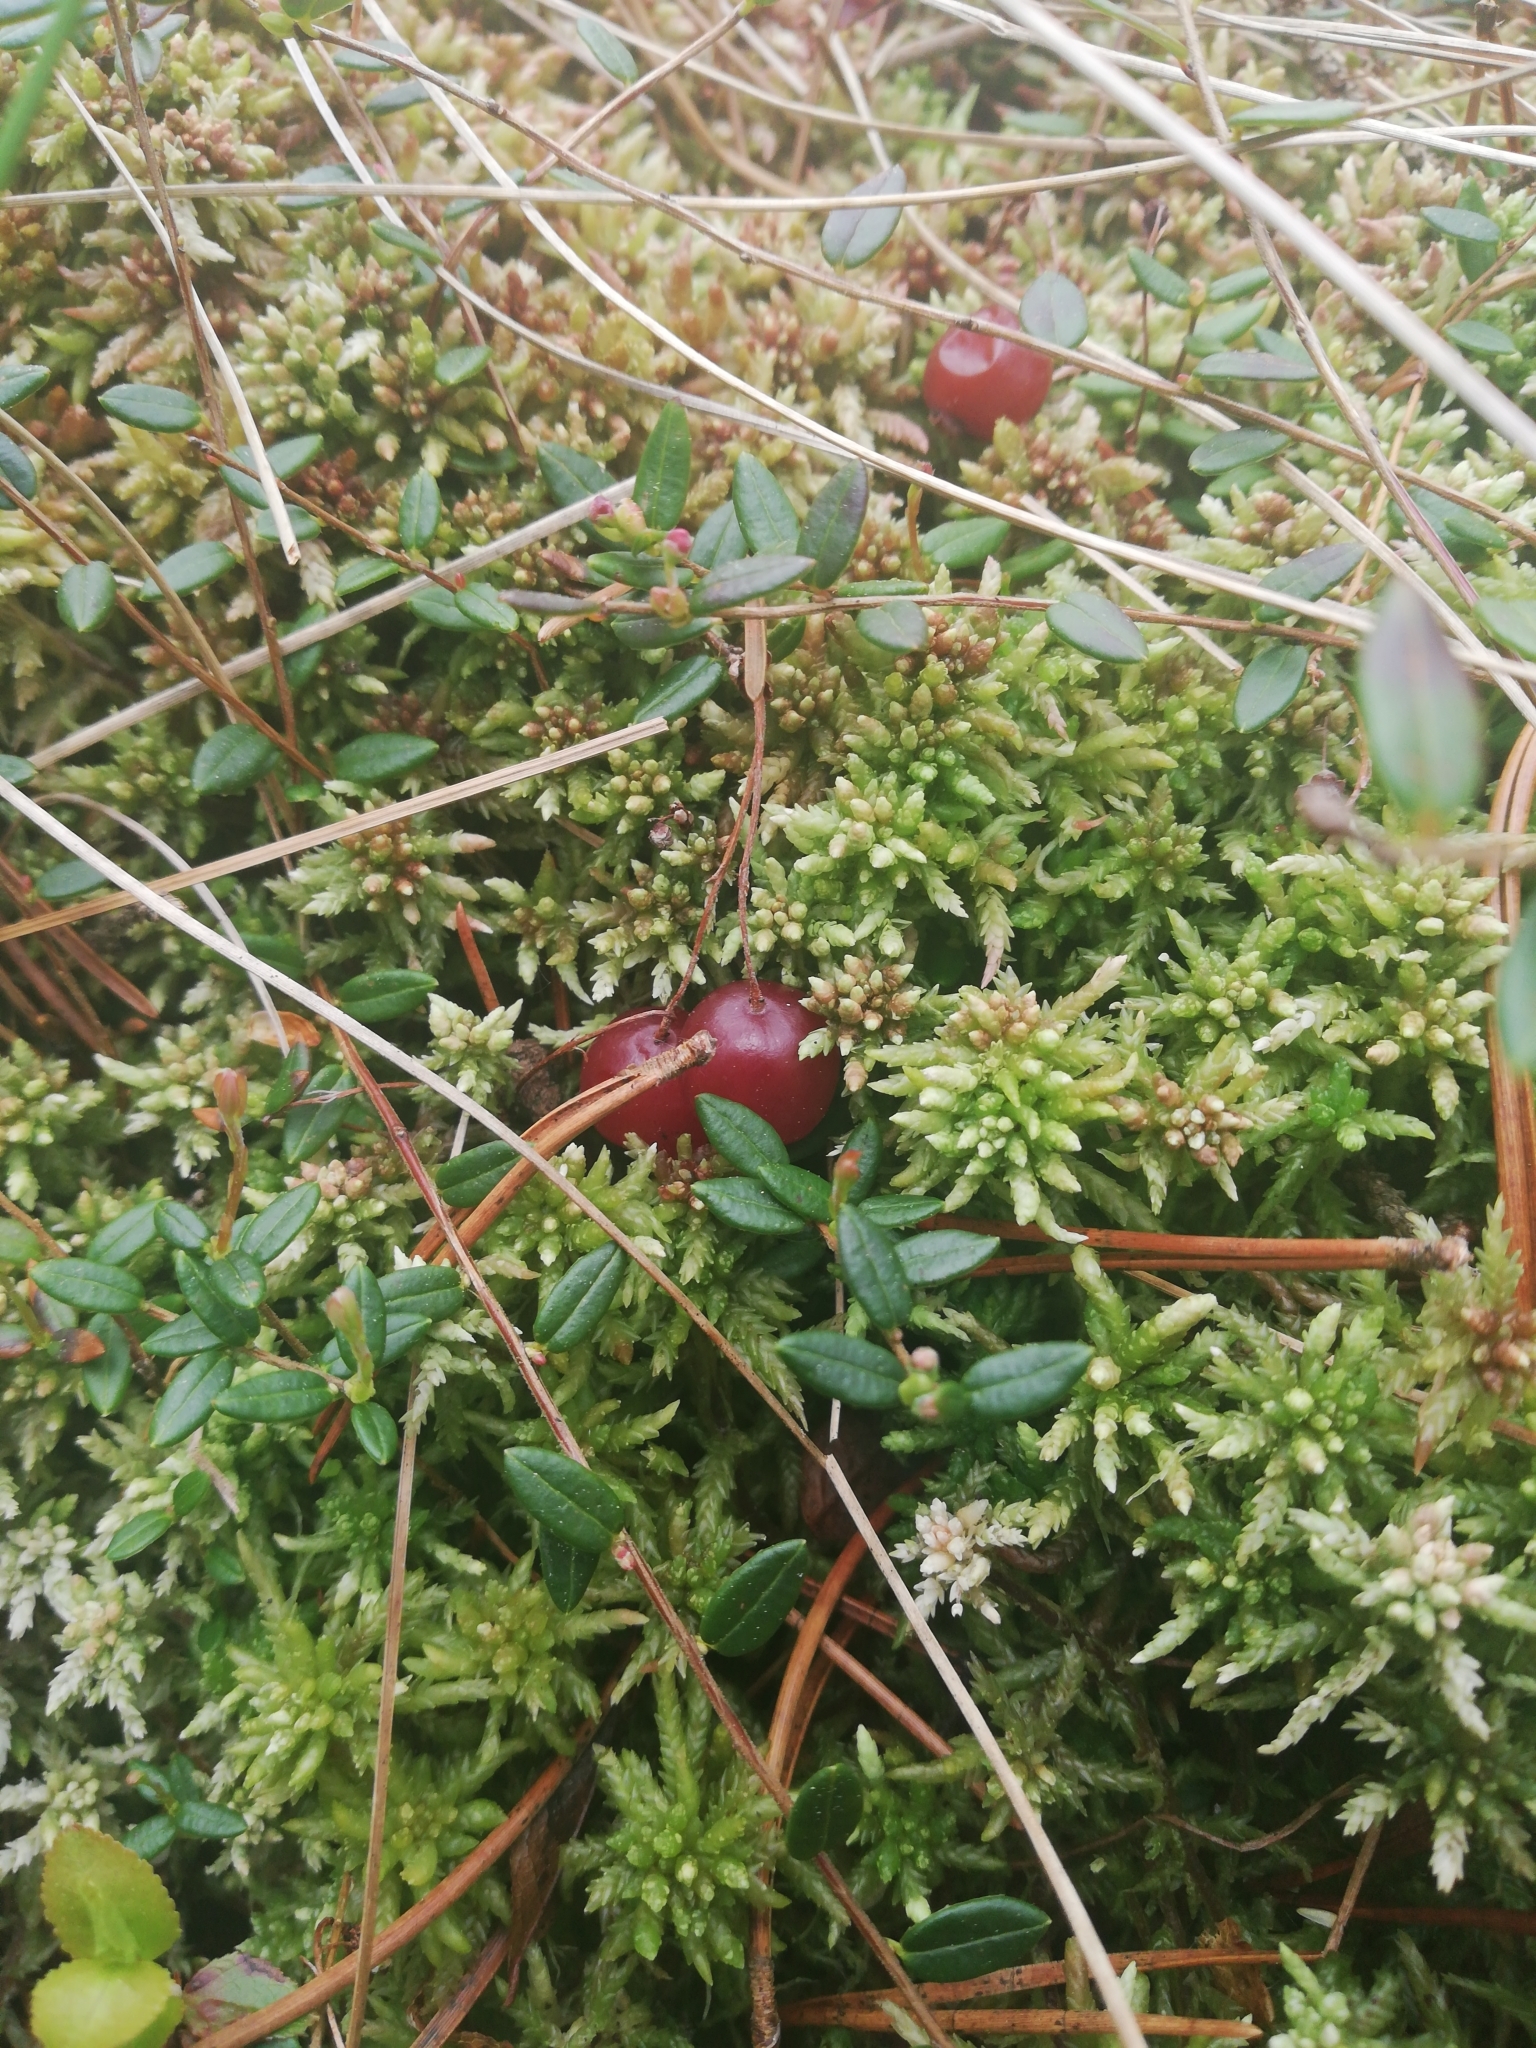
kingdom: Plantae
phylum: Tracheophyta
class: Magnoliopsida
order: Ericales
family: Ericaceae
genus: Vaccinium
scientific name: Vaccinium oxycoccos
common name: Cranberry
